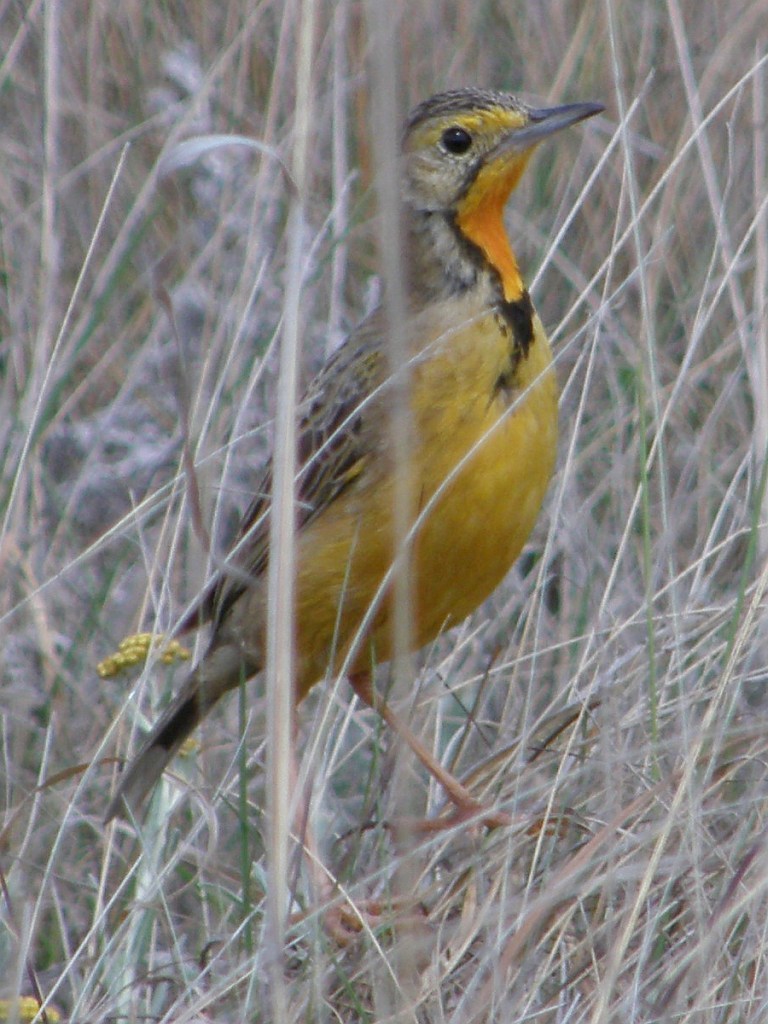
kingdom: Animalia
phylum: Chordata
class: Aves
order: Passeriformes
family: Motacillidae
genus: Macronyx
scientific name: Macronyx capensis
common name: Cape longclaw
